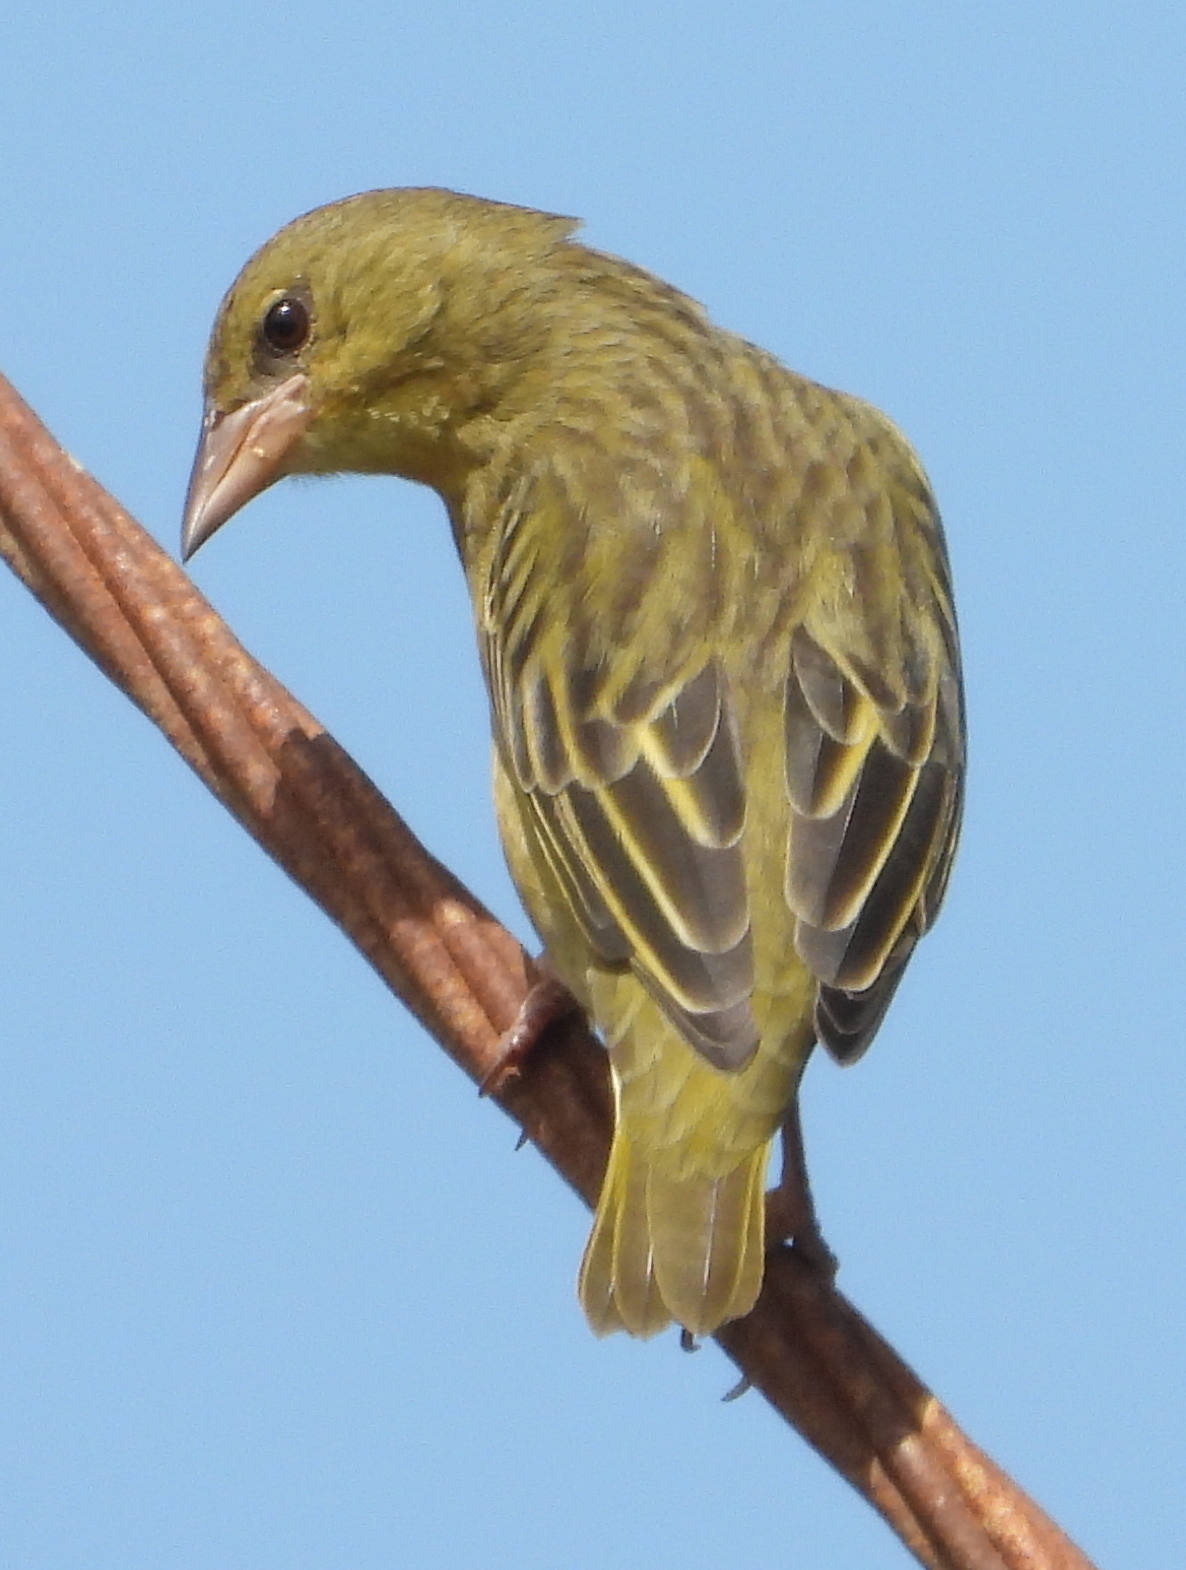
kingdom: Animalia
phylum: Chordata
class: Aves
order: Passeriformes
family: Ploceidae
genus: Ploceus
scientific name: Ploceus capensis
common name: Cape weaver
